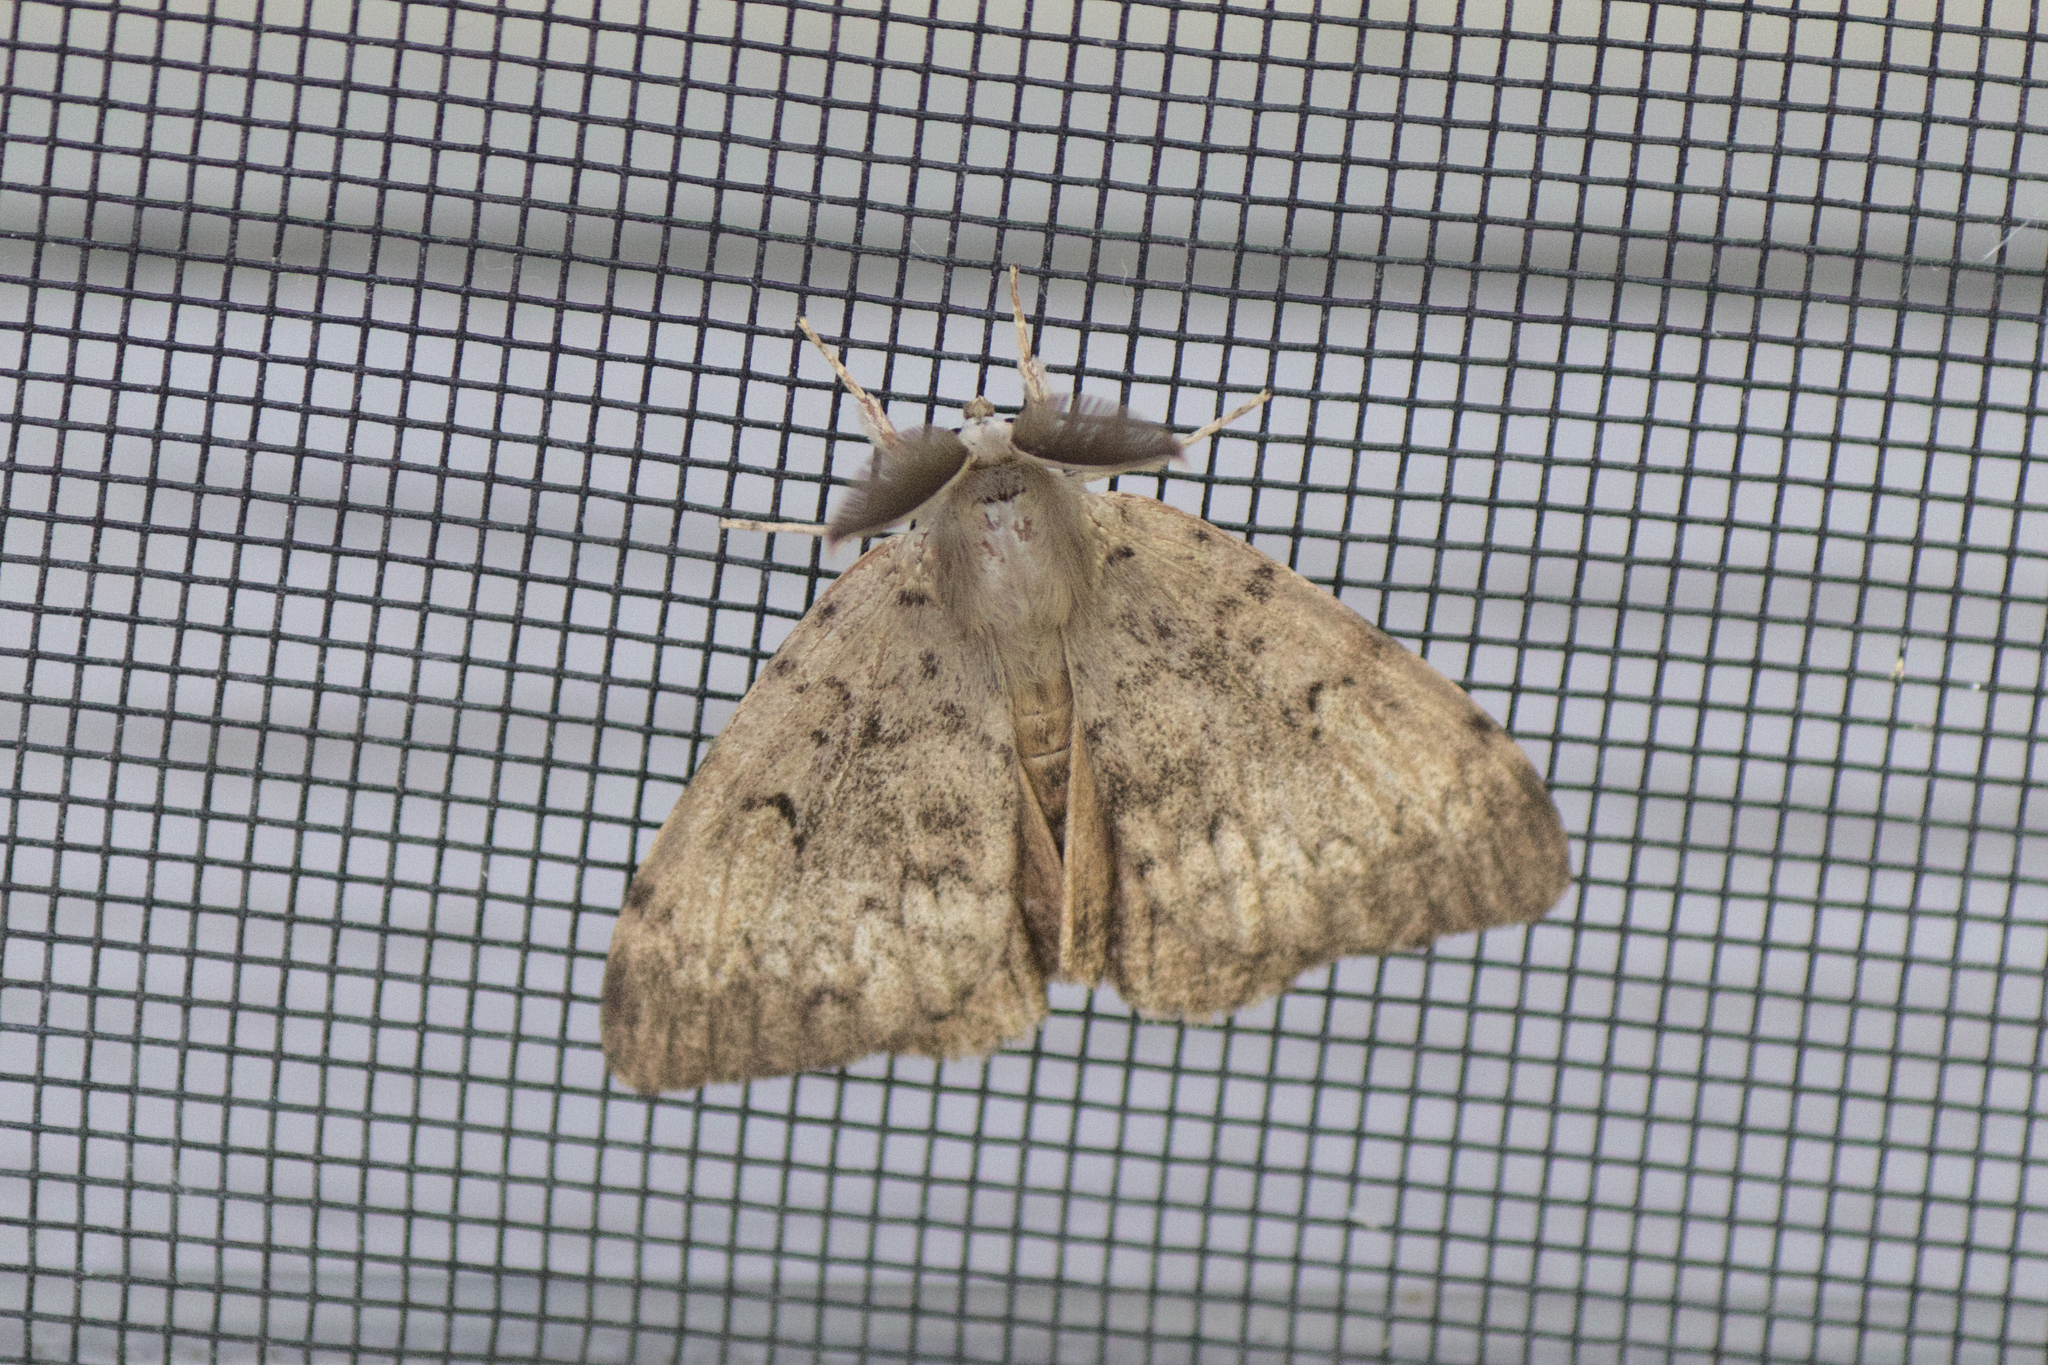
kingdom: Animalia
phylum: Arthropoda
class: Insecta
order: Lepidoptera
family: Erebidae
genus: Lymantria
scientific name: Lymantria dispar
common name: Gypsy moth
